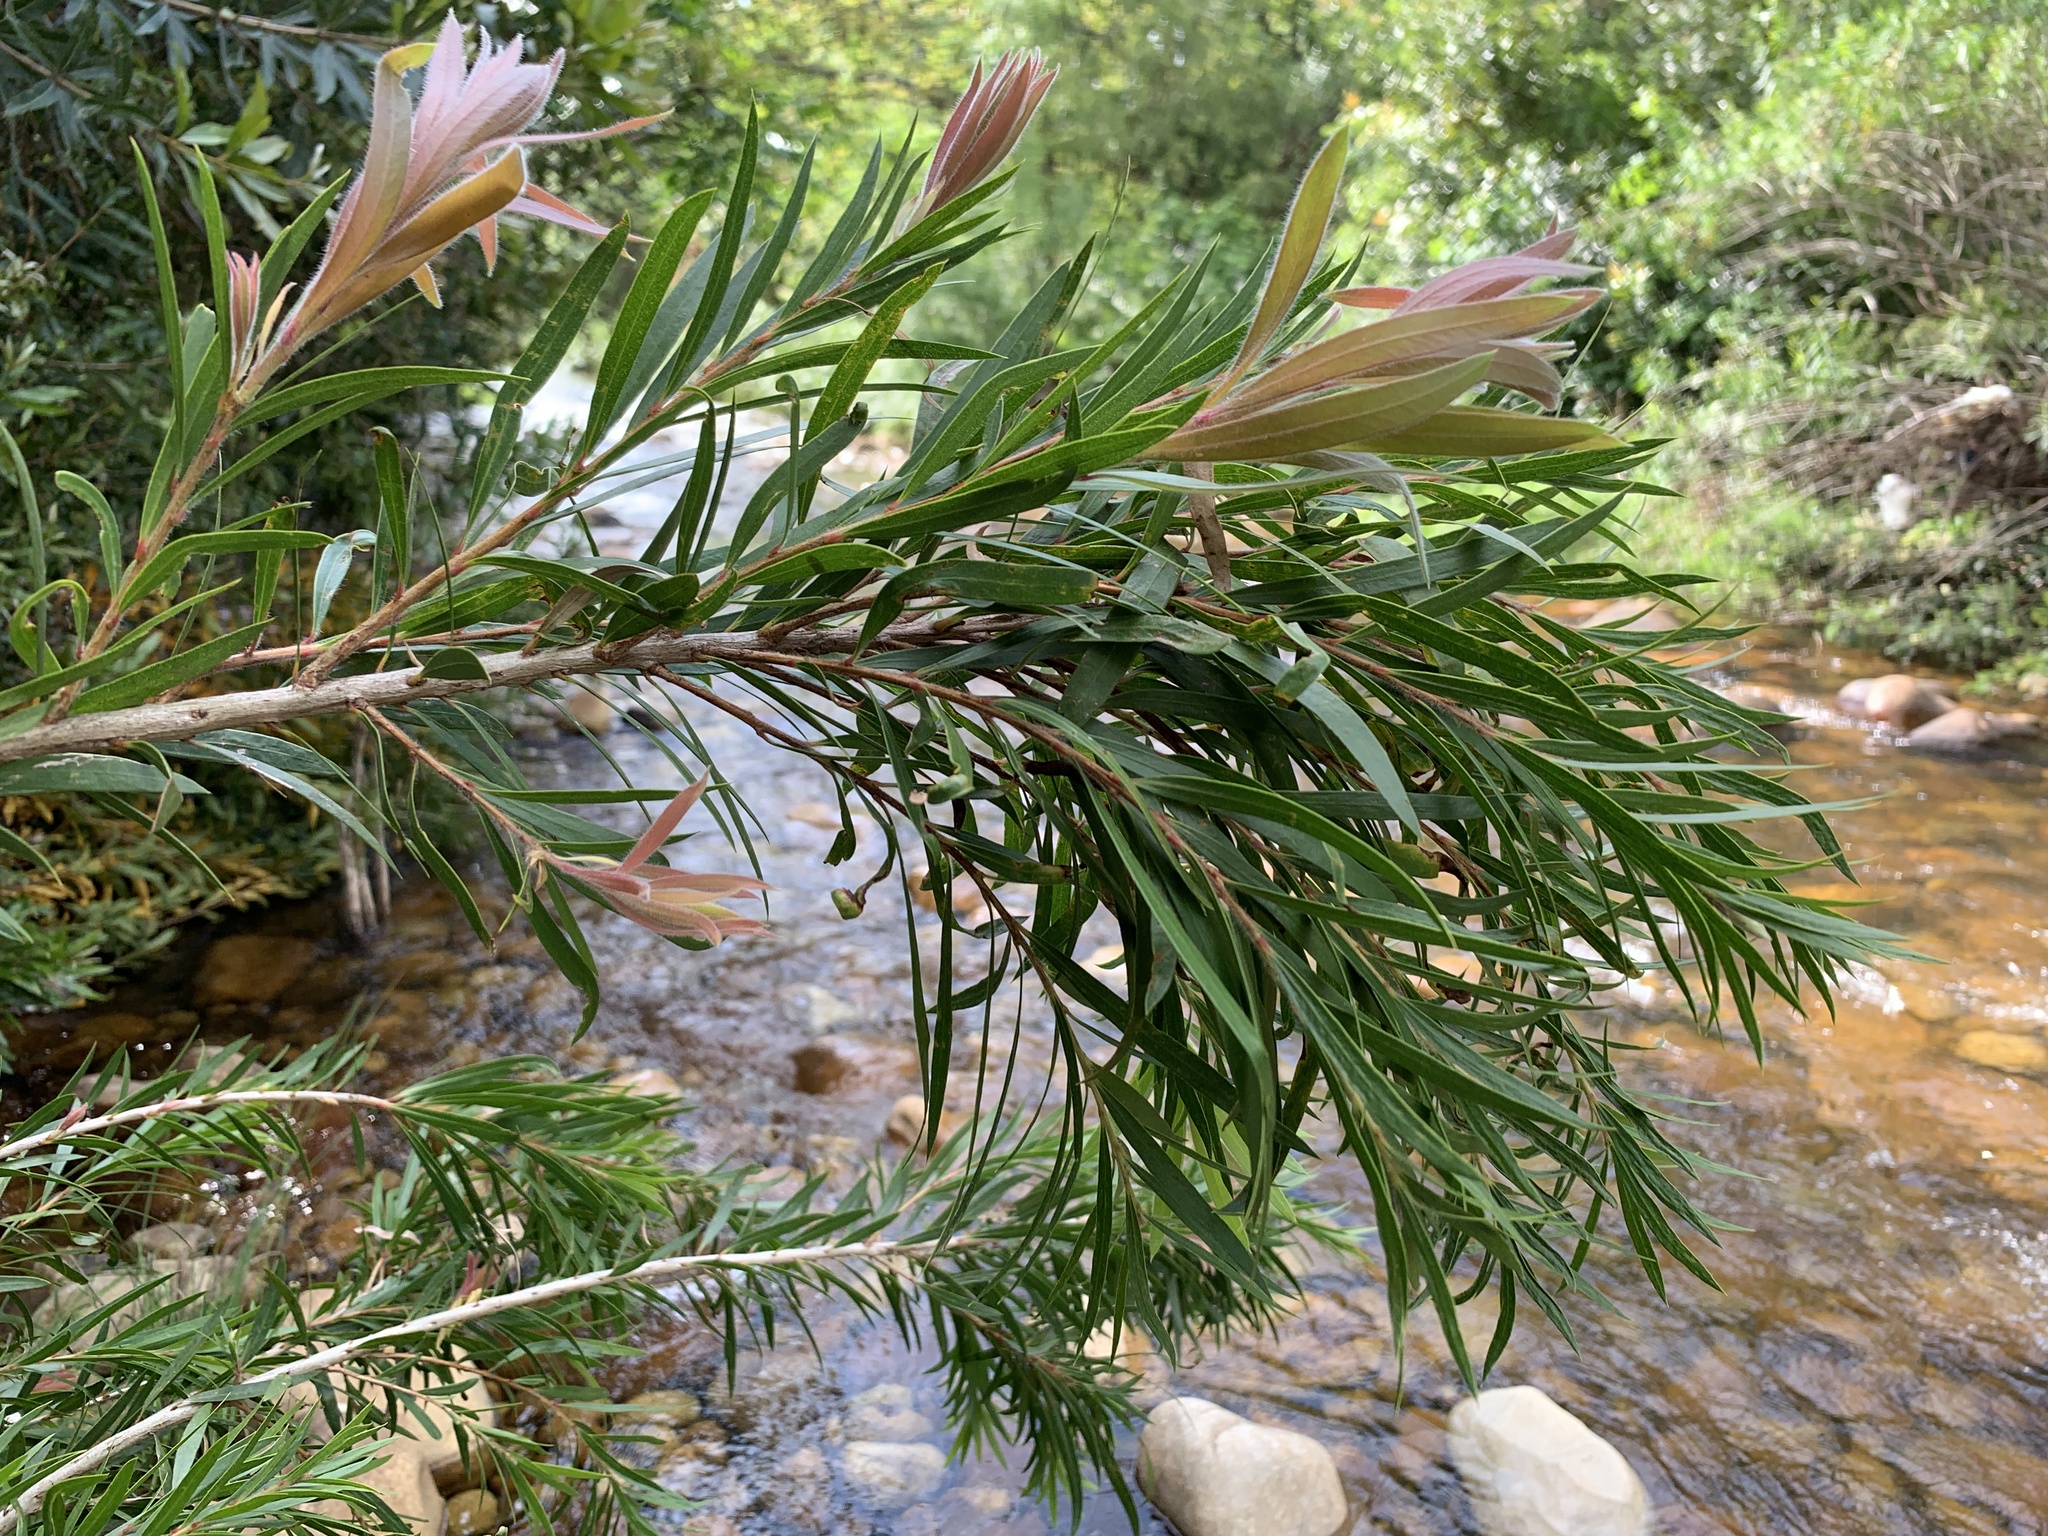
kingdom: Plantae
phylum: Tracheophyta
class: Magnoliopsida
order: Myrtales
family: Myrtaceae
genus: Callistemon
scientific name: Callistemon viminalis
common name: Drooping bottlebrush
